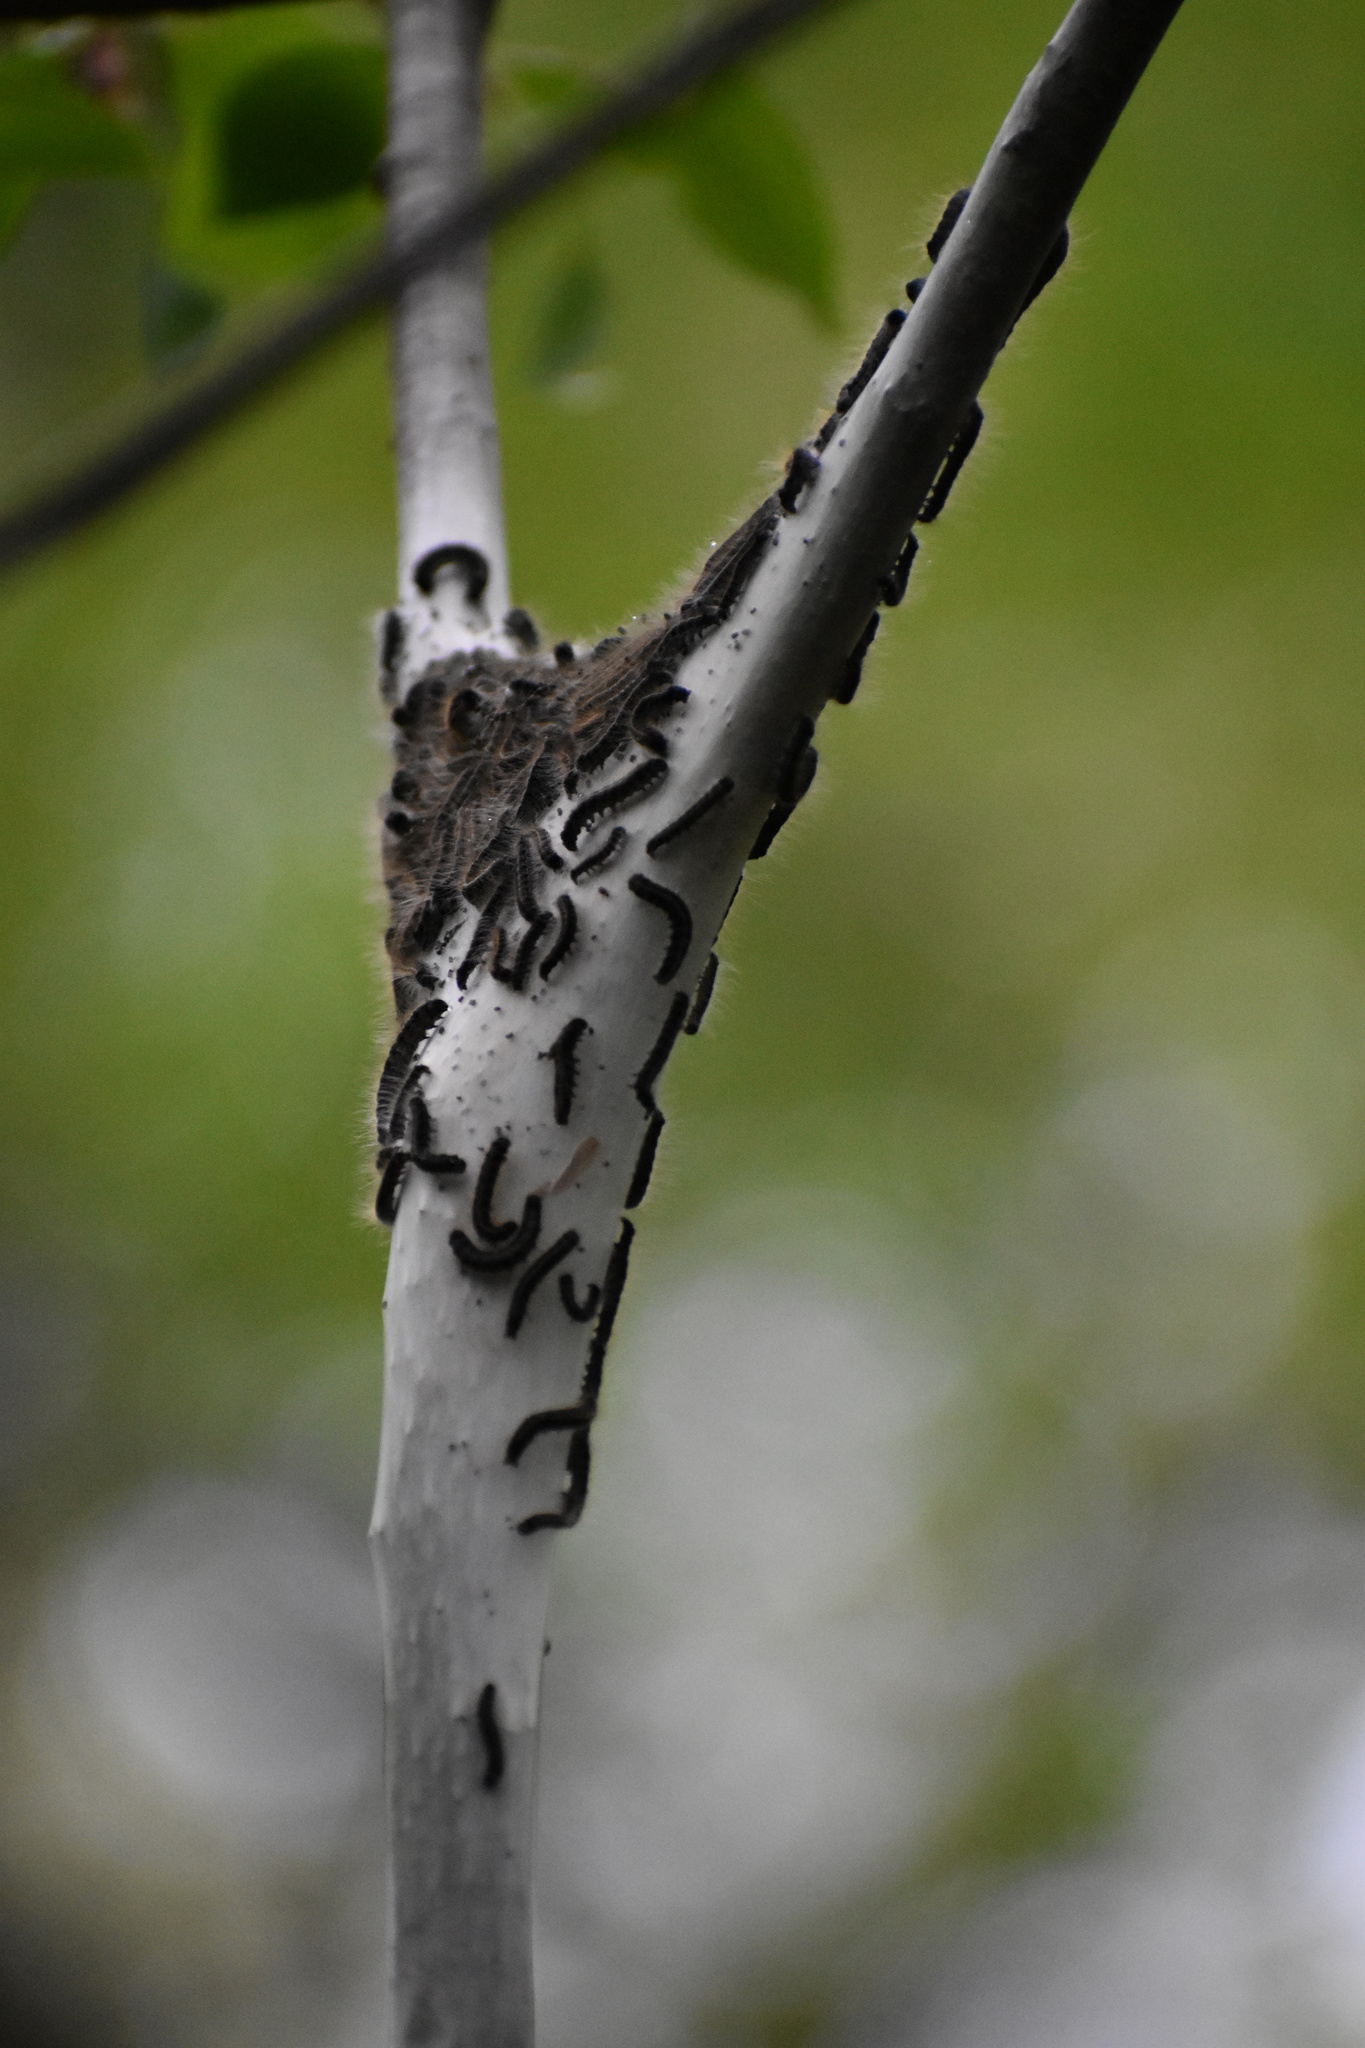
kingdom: Animalia
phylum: Arthropoda
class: Insecta
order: Lepidoptera
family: Lasiocampidae
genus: Malacosoma
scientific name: Malacosoma americana
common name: Eastern tent caterpillar moth
